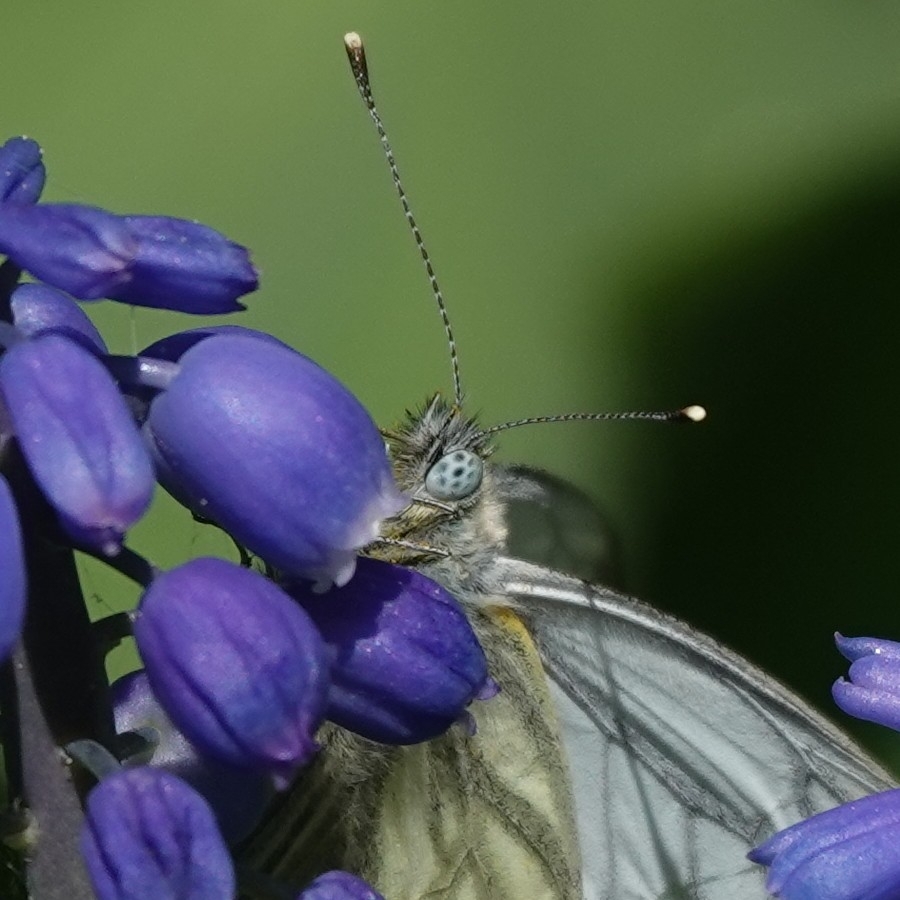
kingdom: Animalia
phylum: Arthropoda
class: Insecta
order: Lepidoptera
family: Pieridae
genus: Pieris
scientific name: Pieris napi
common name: Green-veined white
